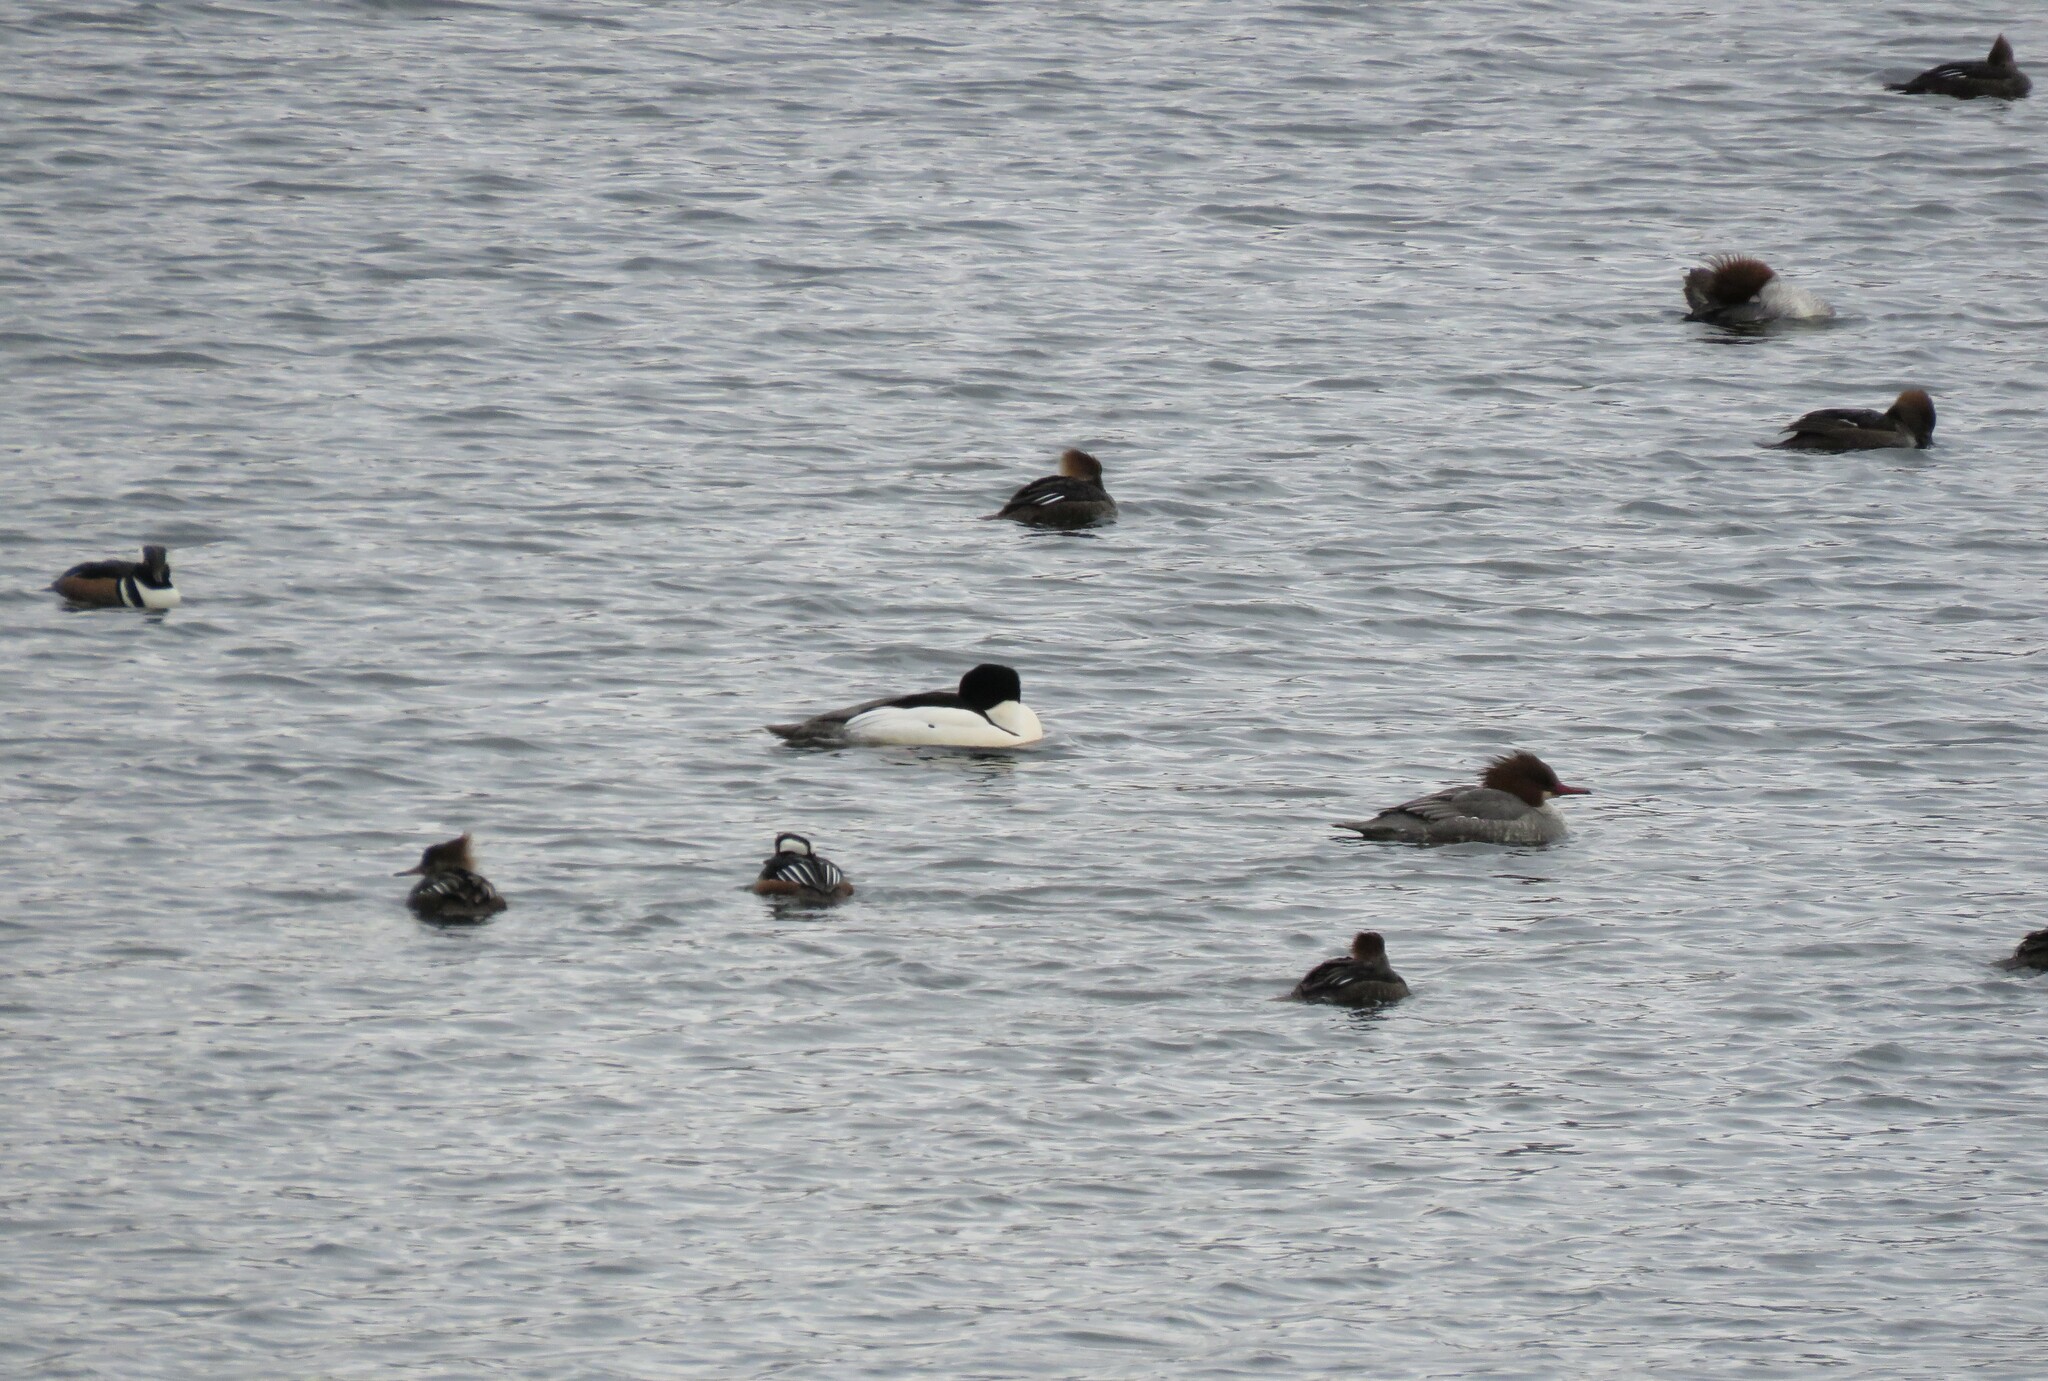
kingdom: Animalia
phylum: Chordata
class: Aves
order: Anseriformes
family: Anatidae
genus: Mergus
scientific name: Mergus merganser
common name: Common merganser
